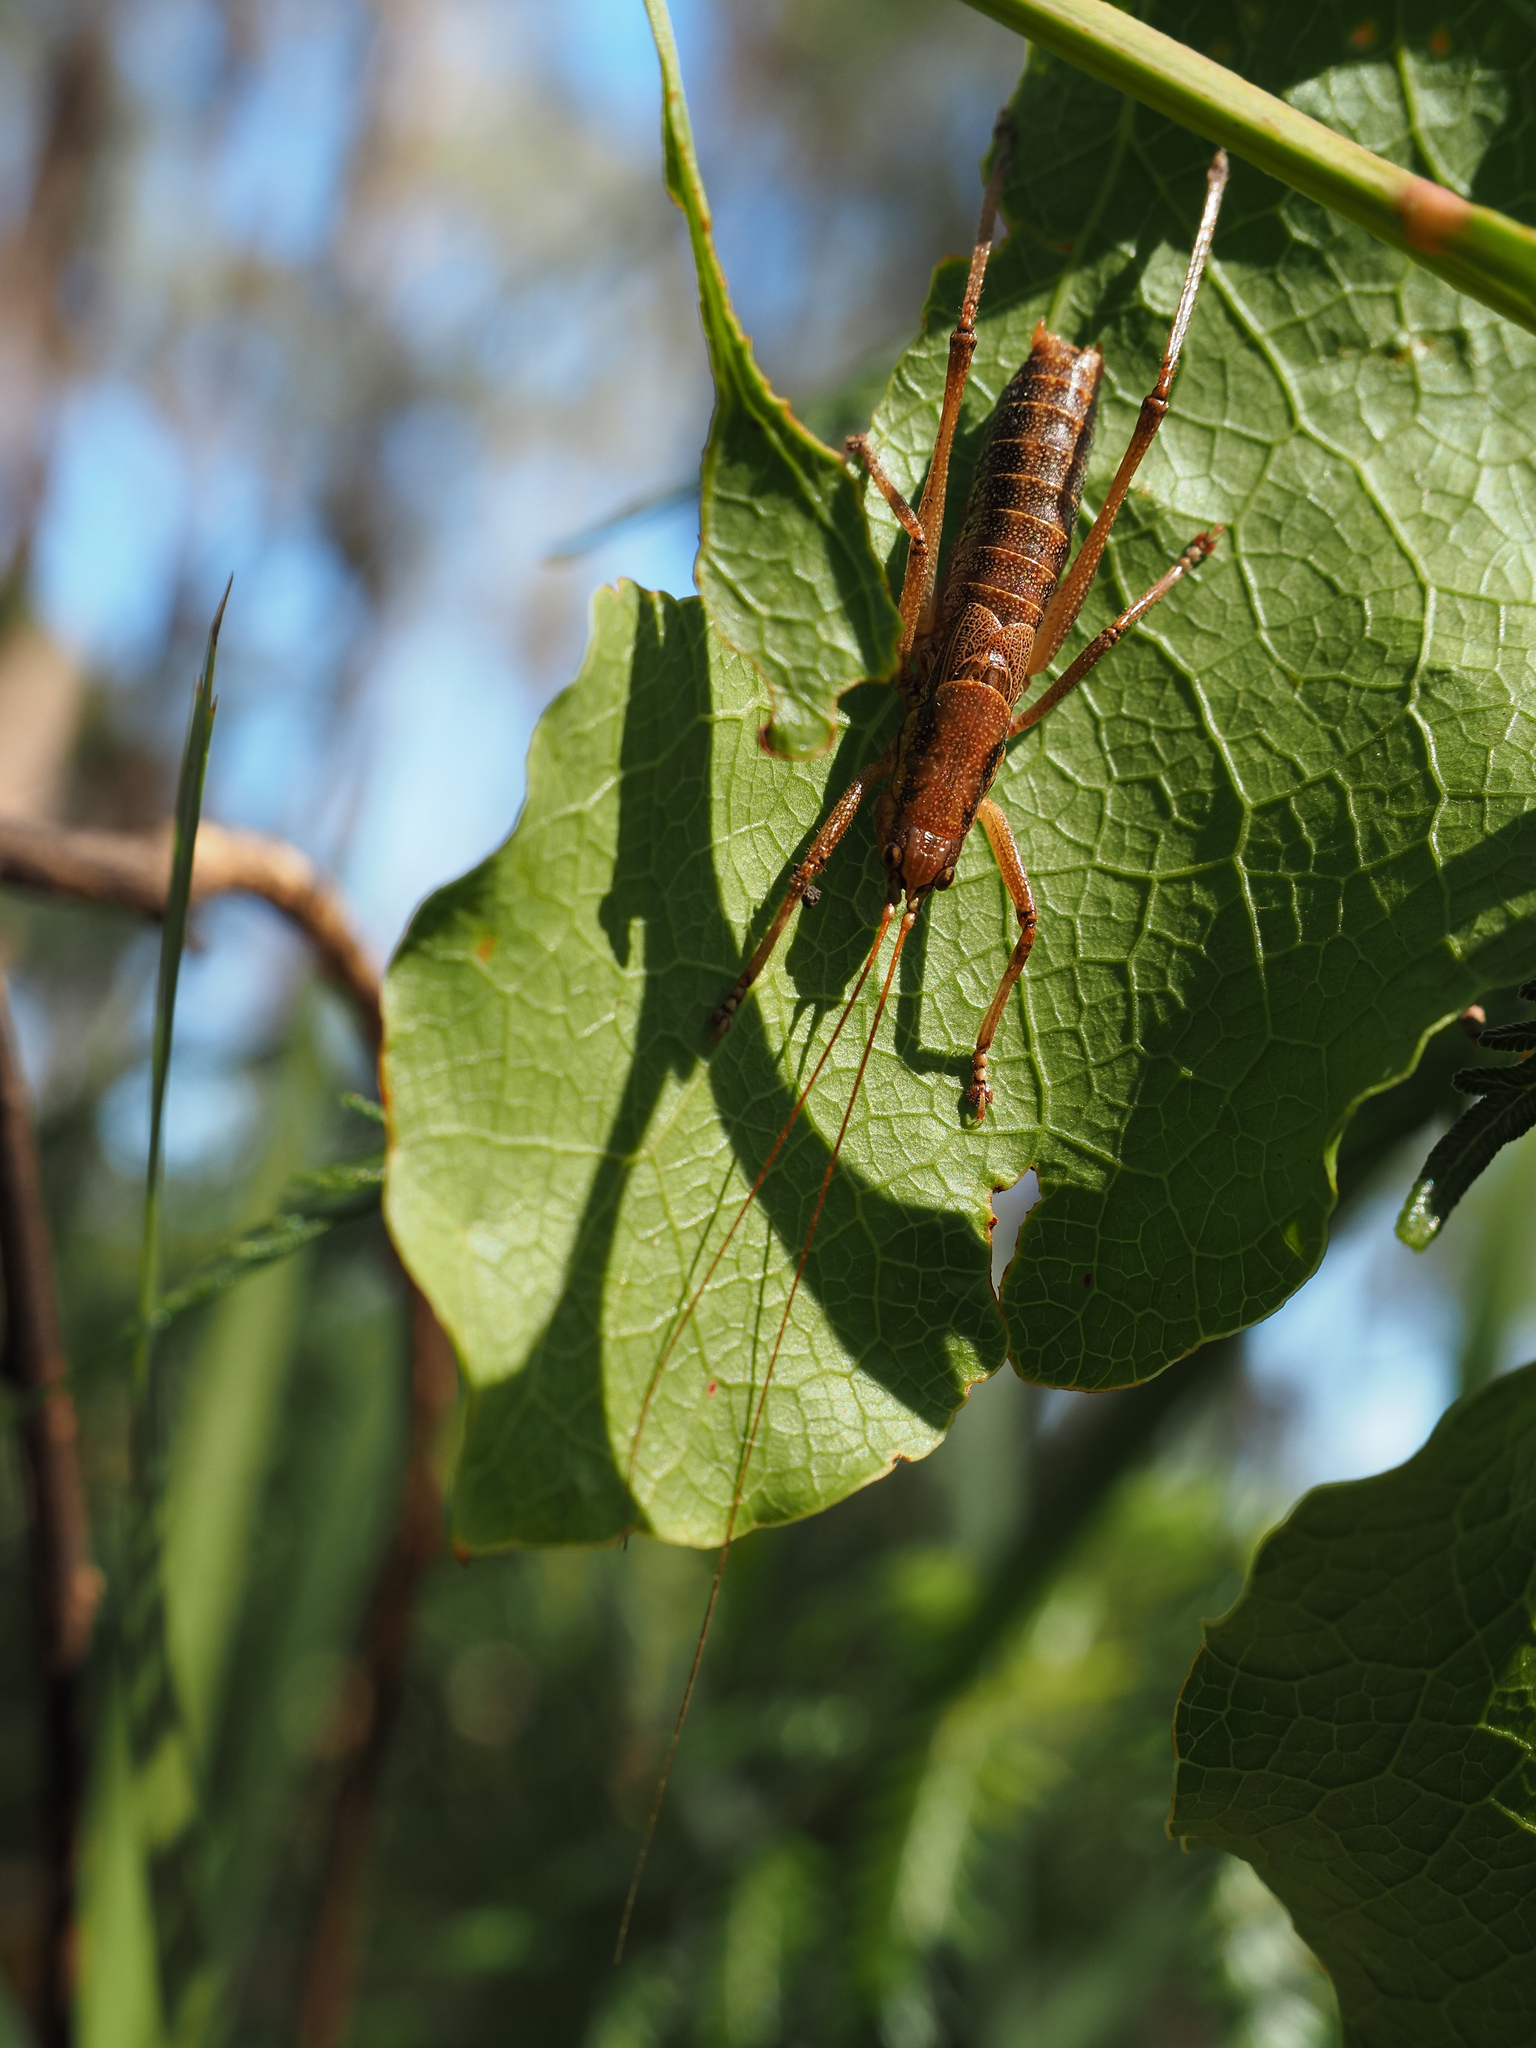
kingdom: Animalia
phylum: Arthropoda
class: Insecta
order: Orthoptera
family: Tettigoniidae
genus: Coptaspis
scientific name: Coptaspis lateralis
